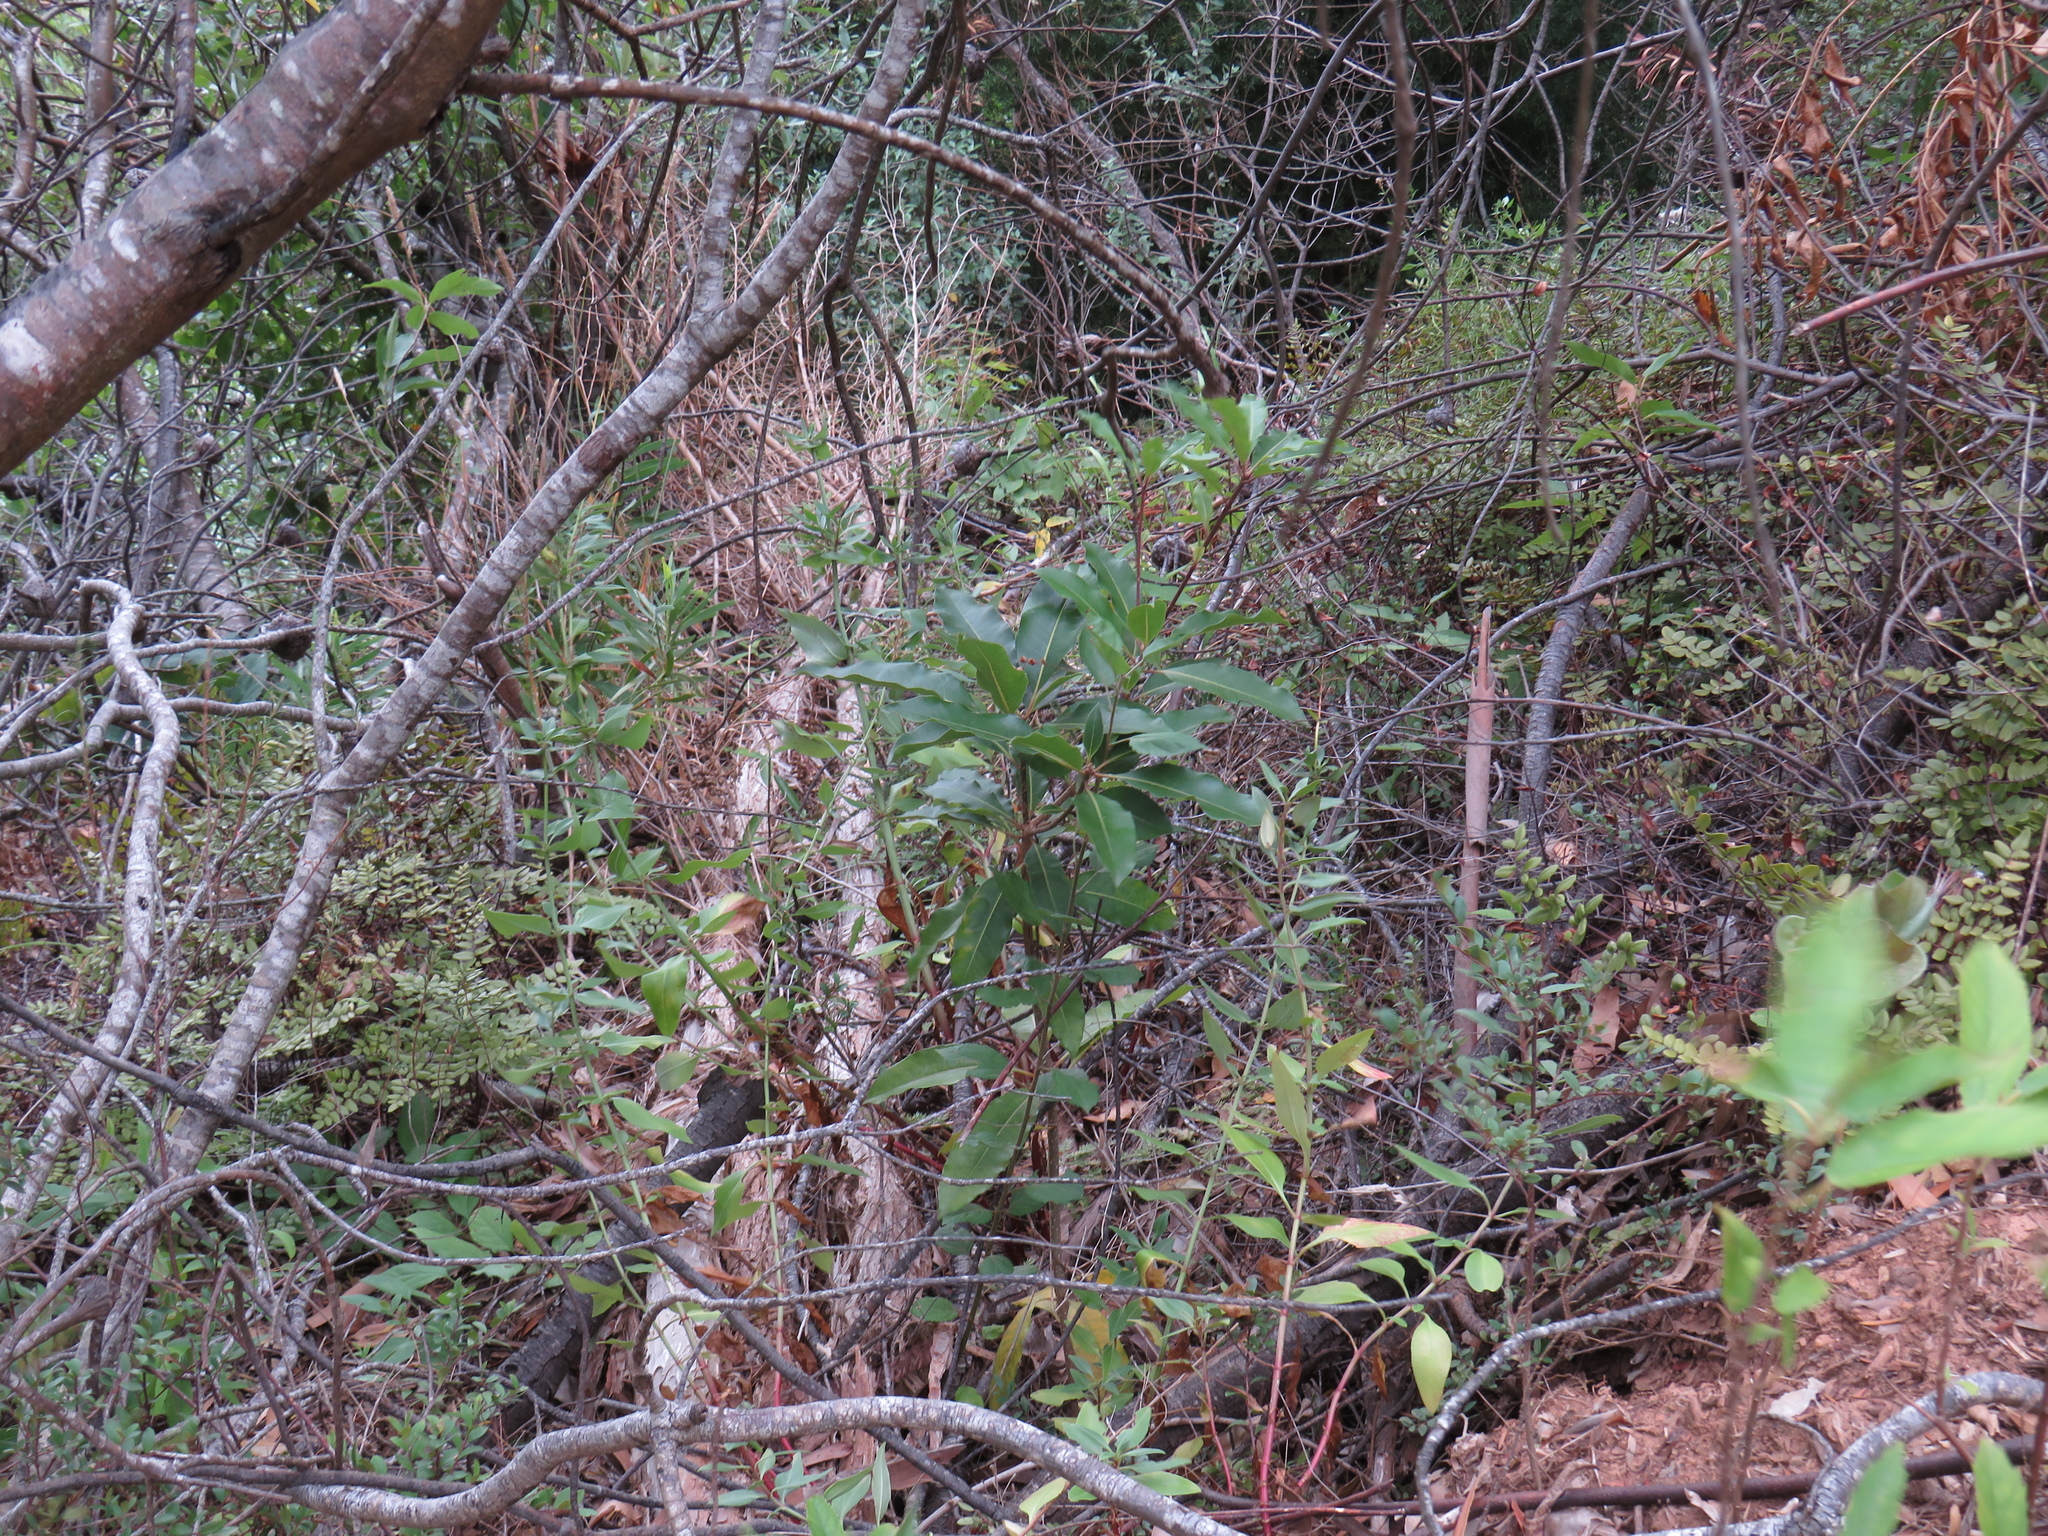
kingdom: Plantae
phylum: Tracheophyta
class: Magnoliopsida
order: Apiales
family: Pittosporaceae
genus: Pittosporum
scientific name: Pittosporum undulatum
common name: Australian cheesewood
